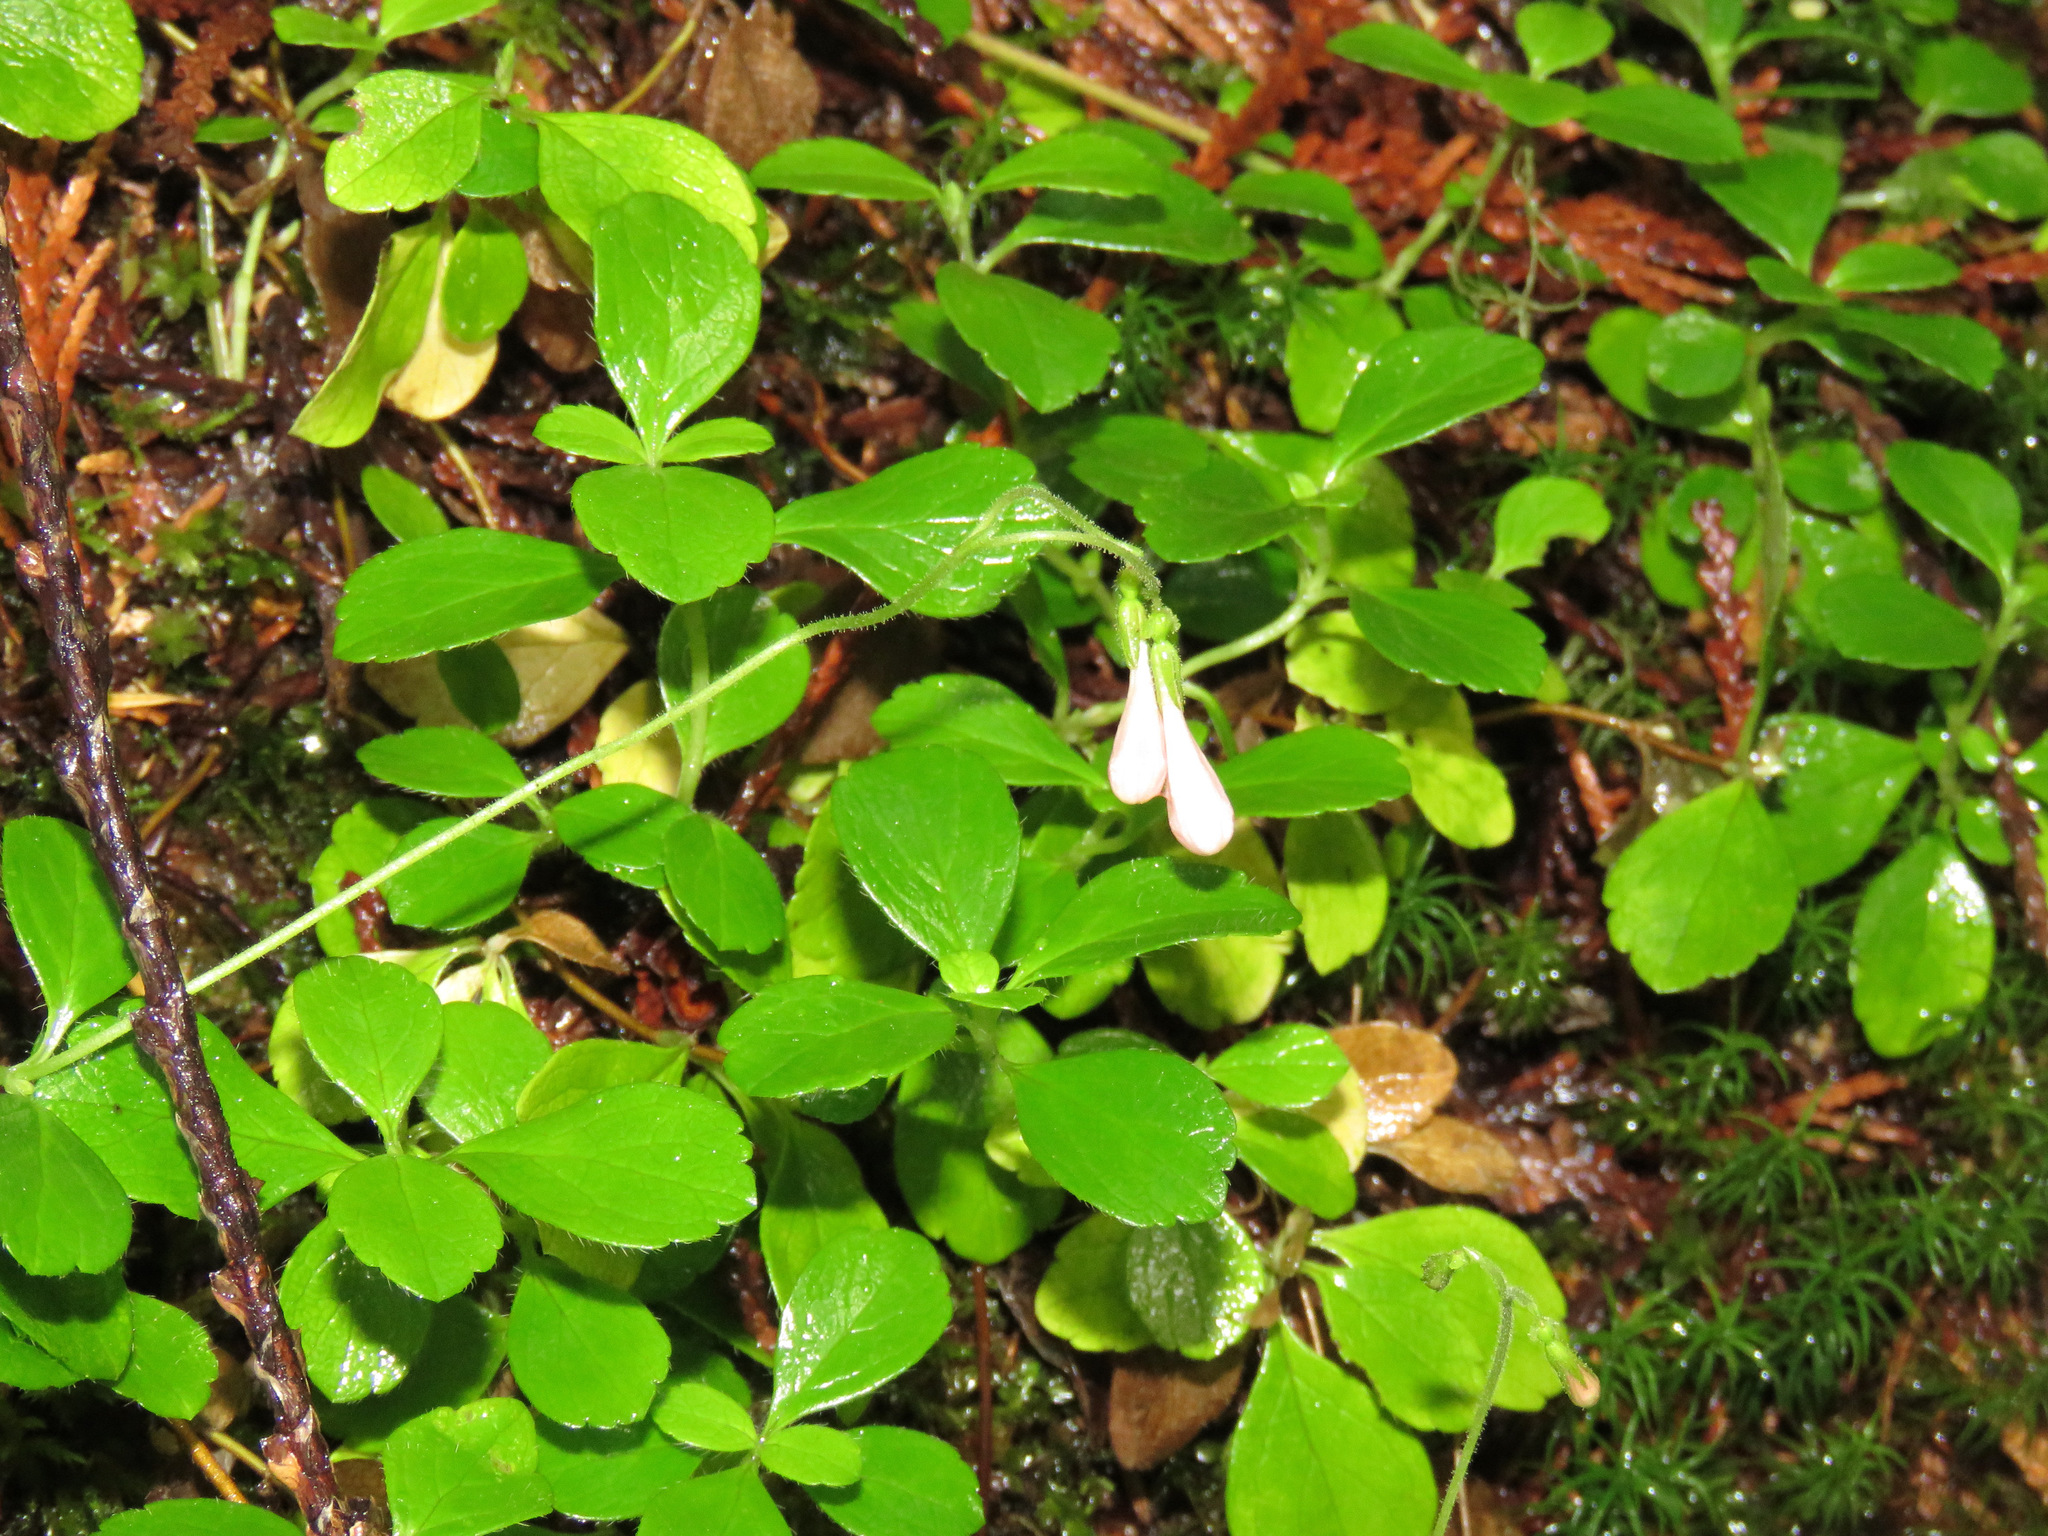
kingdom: Plantae
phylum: Tracheophyta
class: Magnoliopsida
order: Dipsacales
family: Caprifoliaceae
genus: Linnaea
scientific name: Linnaea borealis
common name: Twinflower
